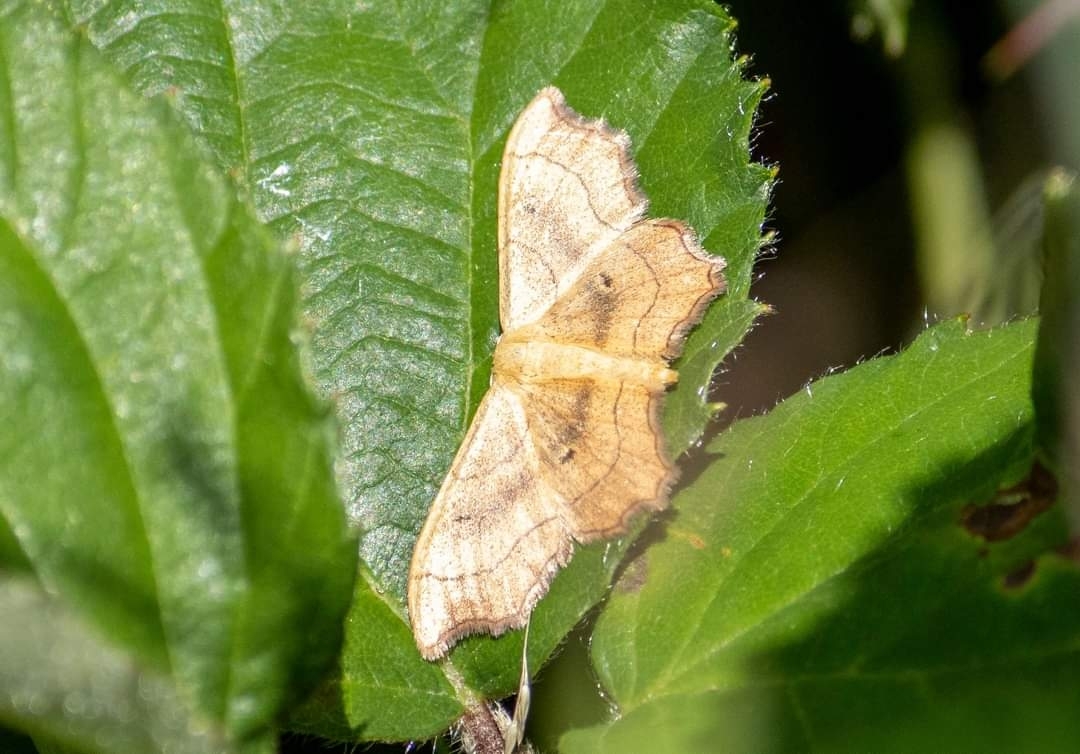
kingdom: Animalia
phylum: Arthropoda
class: Insecta
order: Lepidoptera
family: Geometridae
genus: Idaea
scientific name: Idaea emarginata
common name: Small scallop
